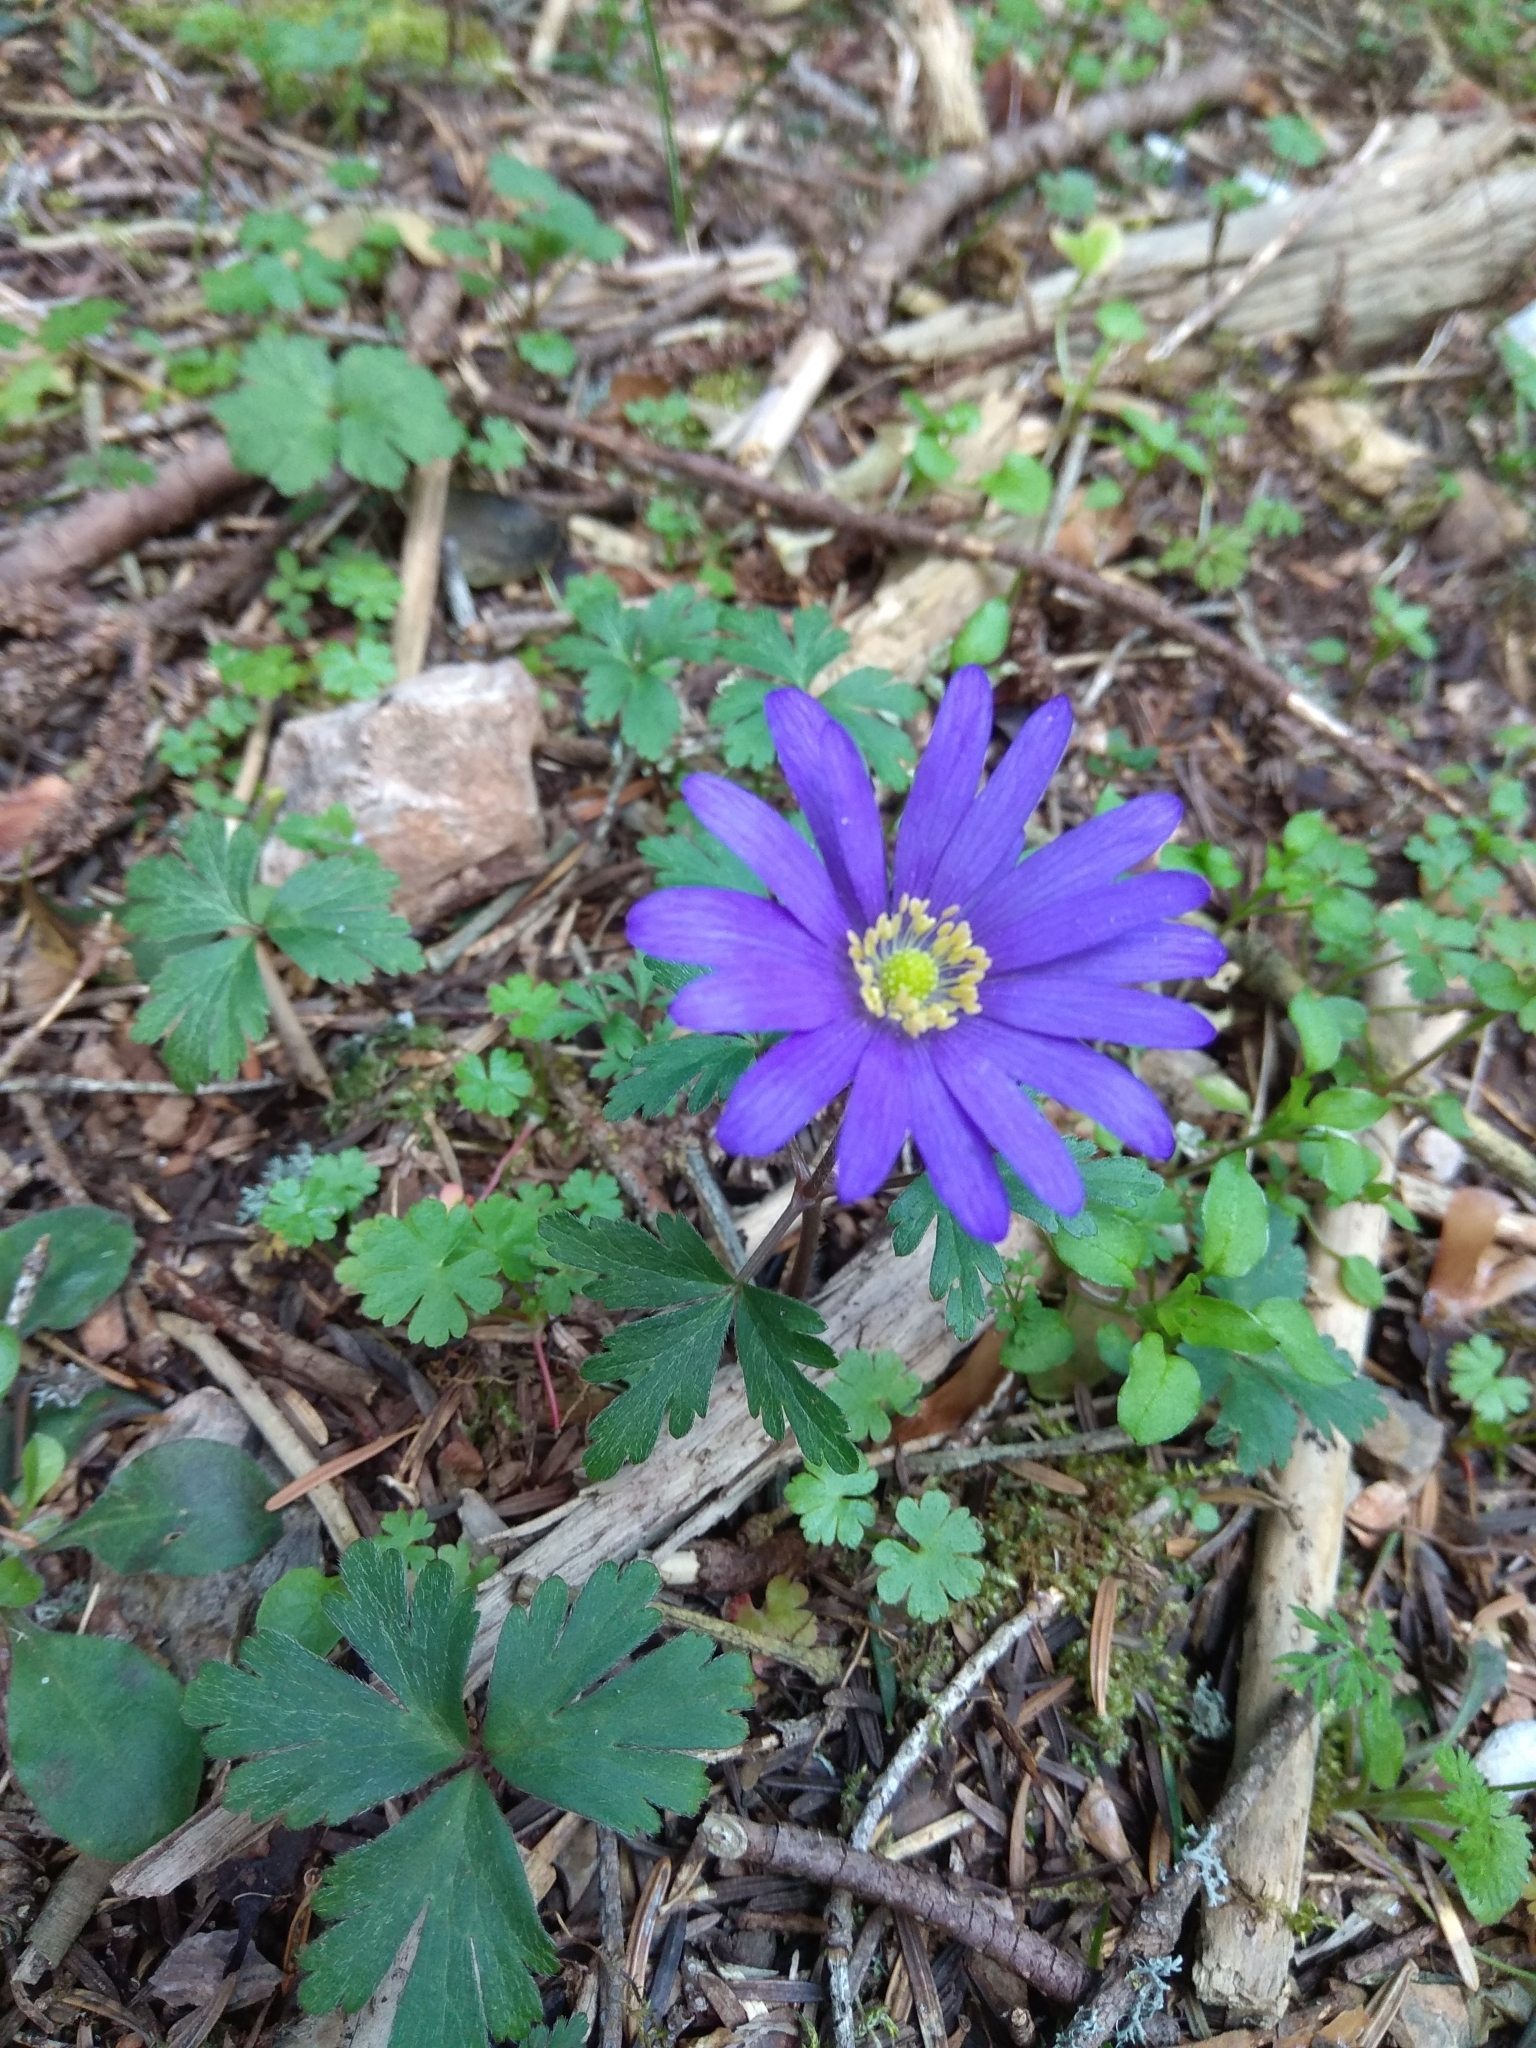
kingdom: Plantae
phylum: Tracheophyta
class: Magnoliopsida
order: Ranunculales
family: Ranunculaceae
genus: Anemone
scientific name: Anemone blanda
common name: Balkan anemone
